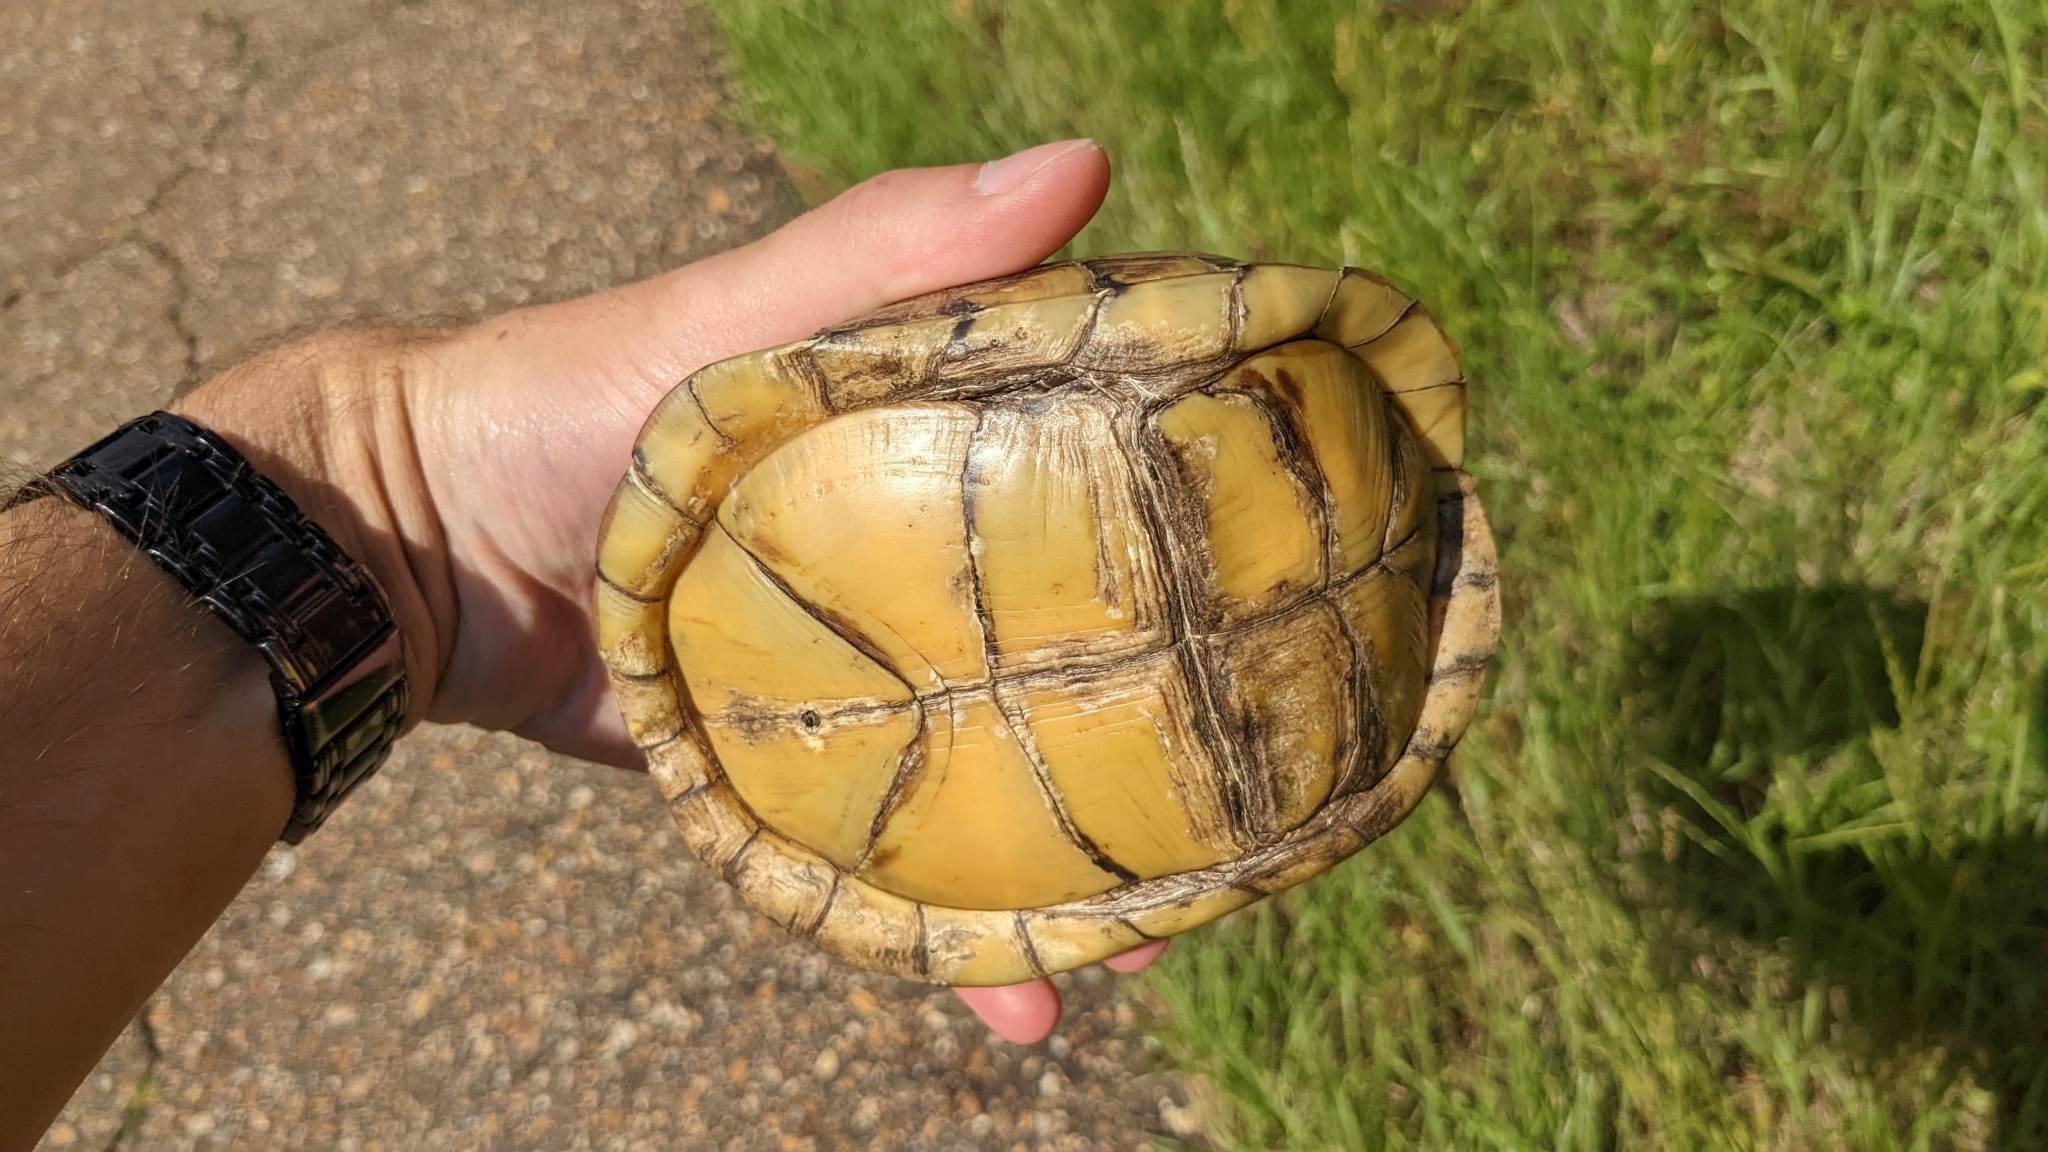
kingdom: Animalia
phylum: Chordata
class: Testudines
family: Emydidae
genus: Terrapene
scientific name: Terrapene carolina
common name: Common box turtle
